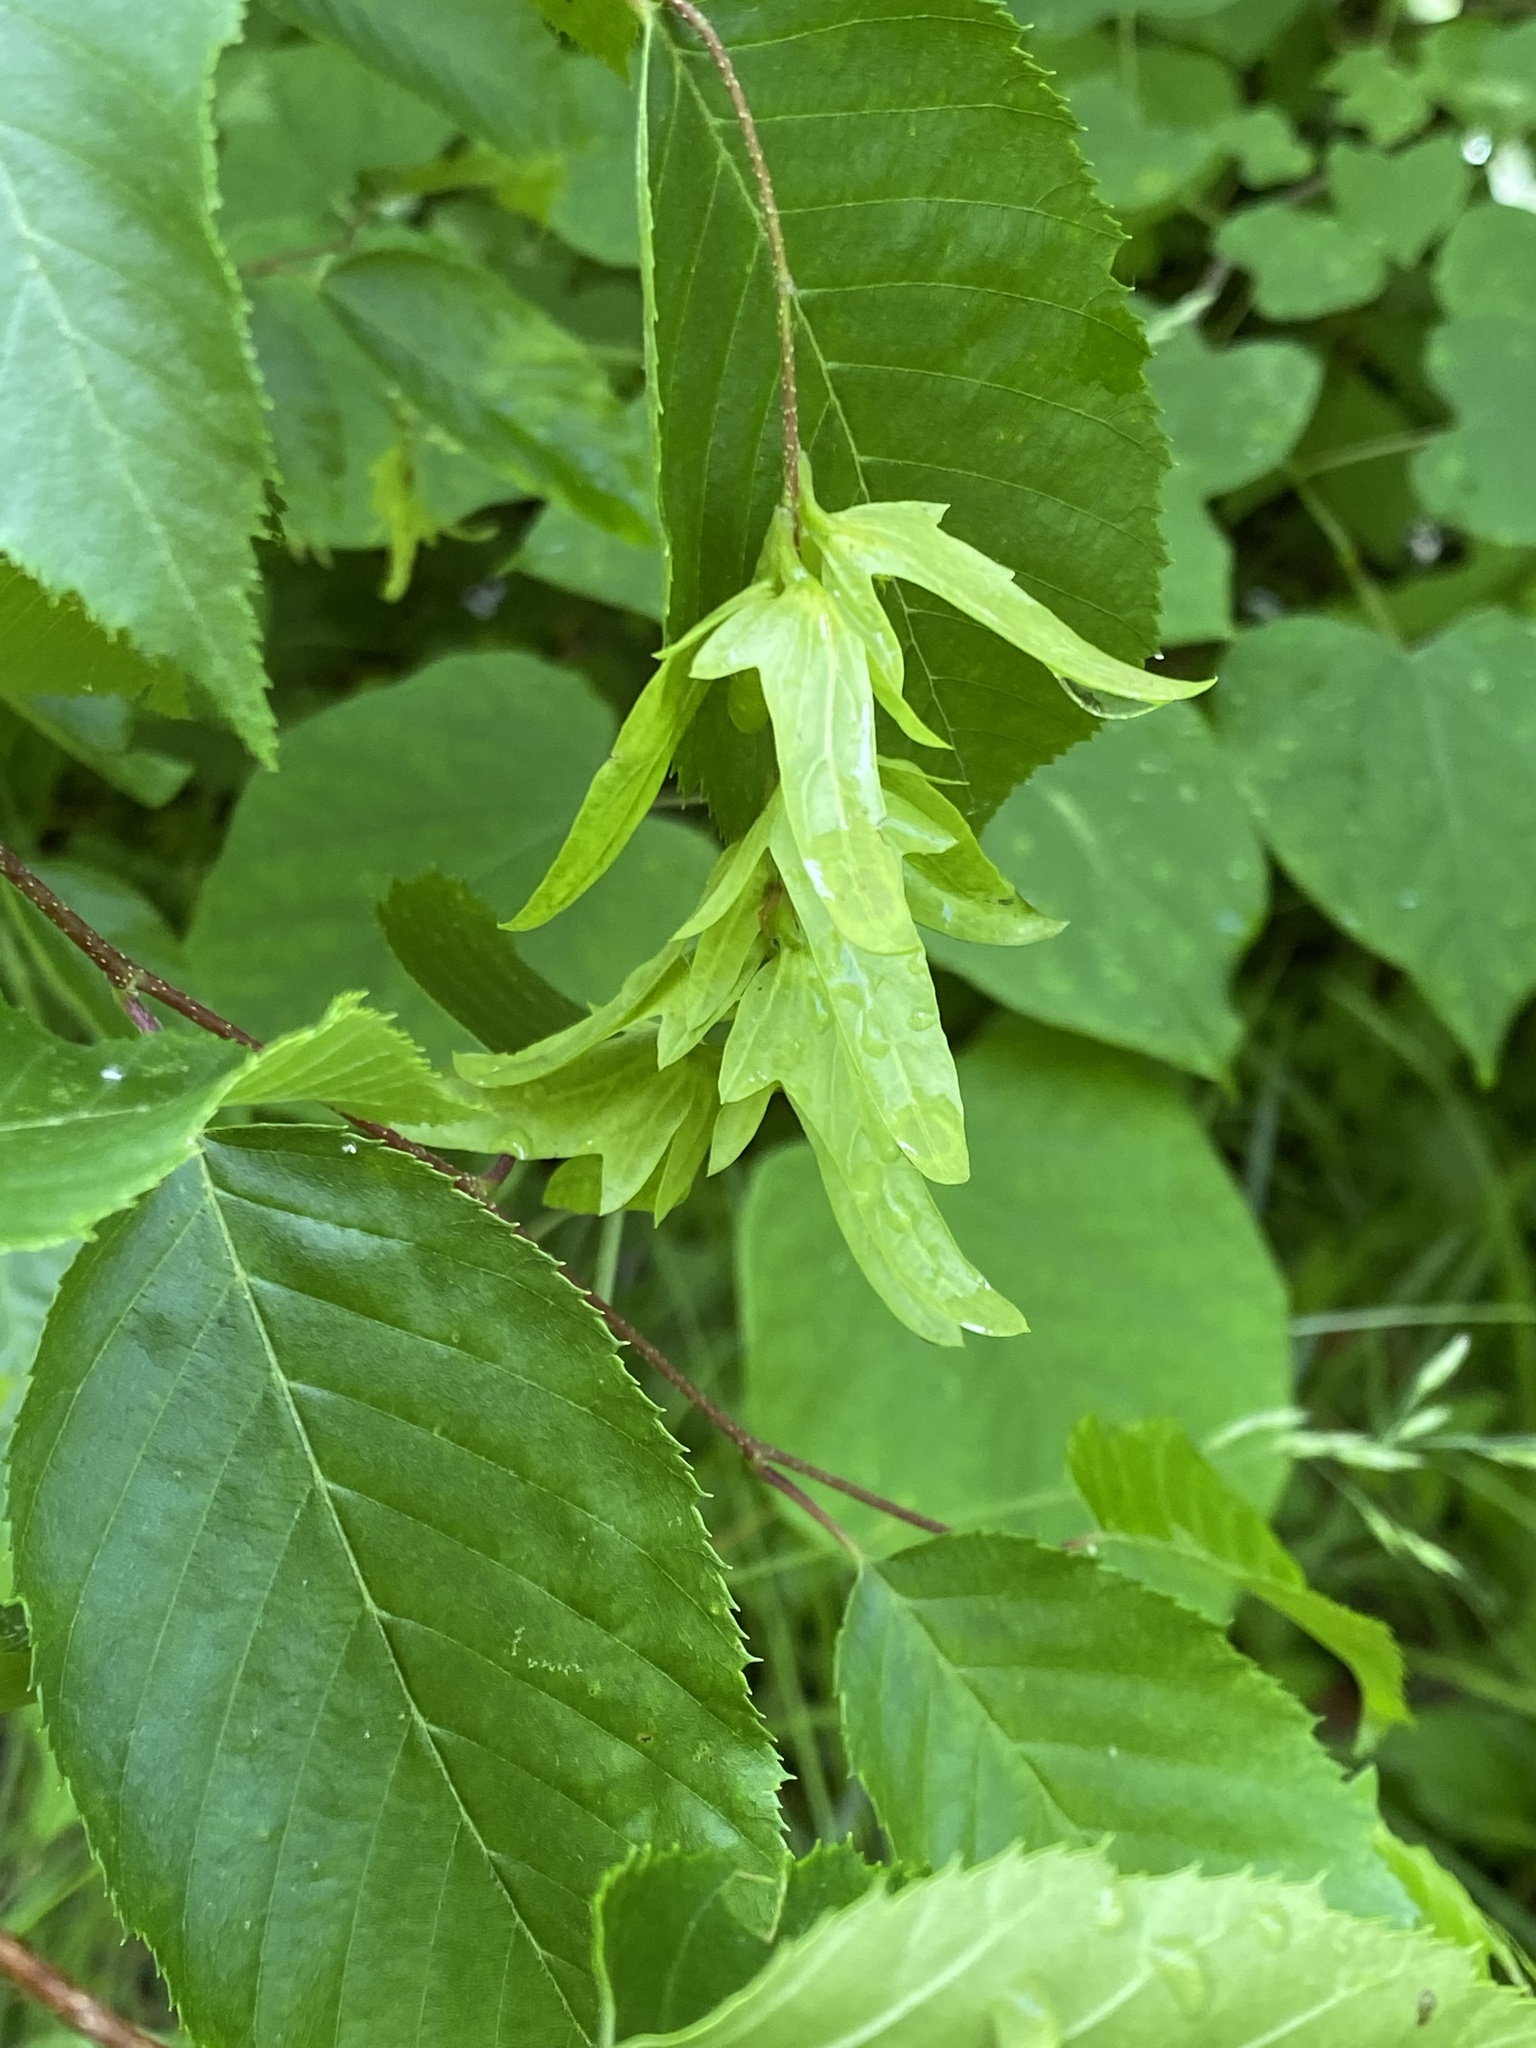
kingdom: Plantae
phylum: Tracheophyta
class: Magnoliopsida
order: Fagales
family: Betulaceae
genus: Carpinus
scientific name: Carpinus caroliniana
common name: American hornbeam
